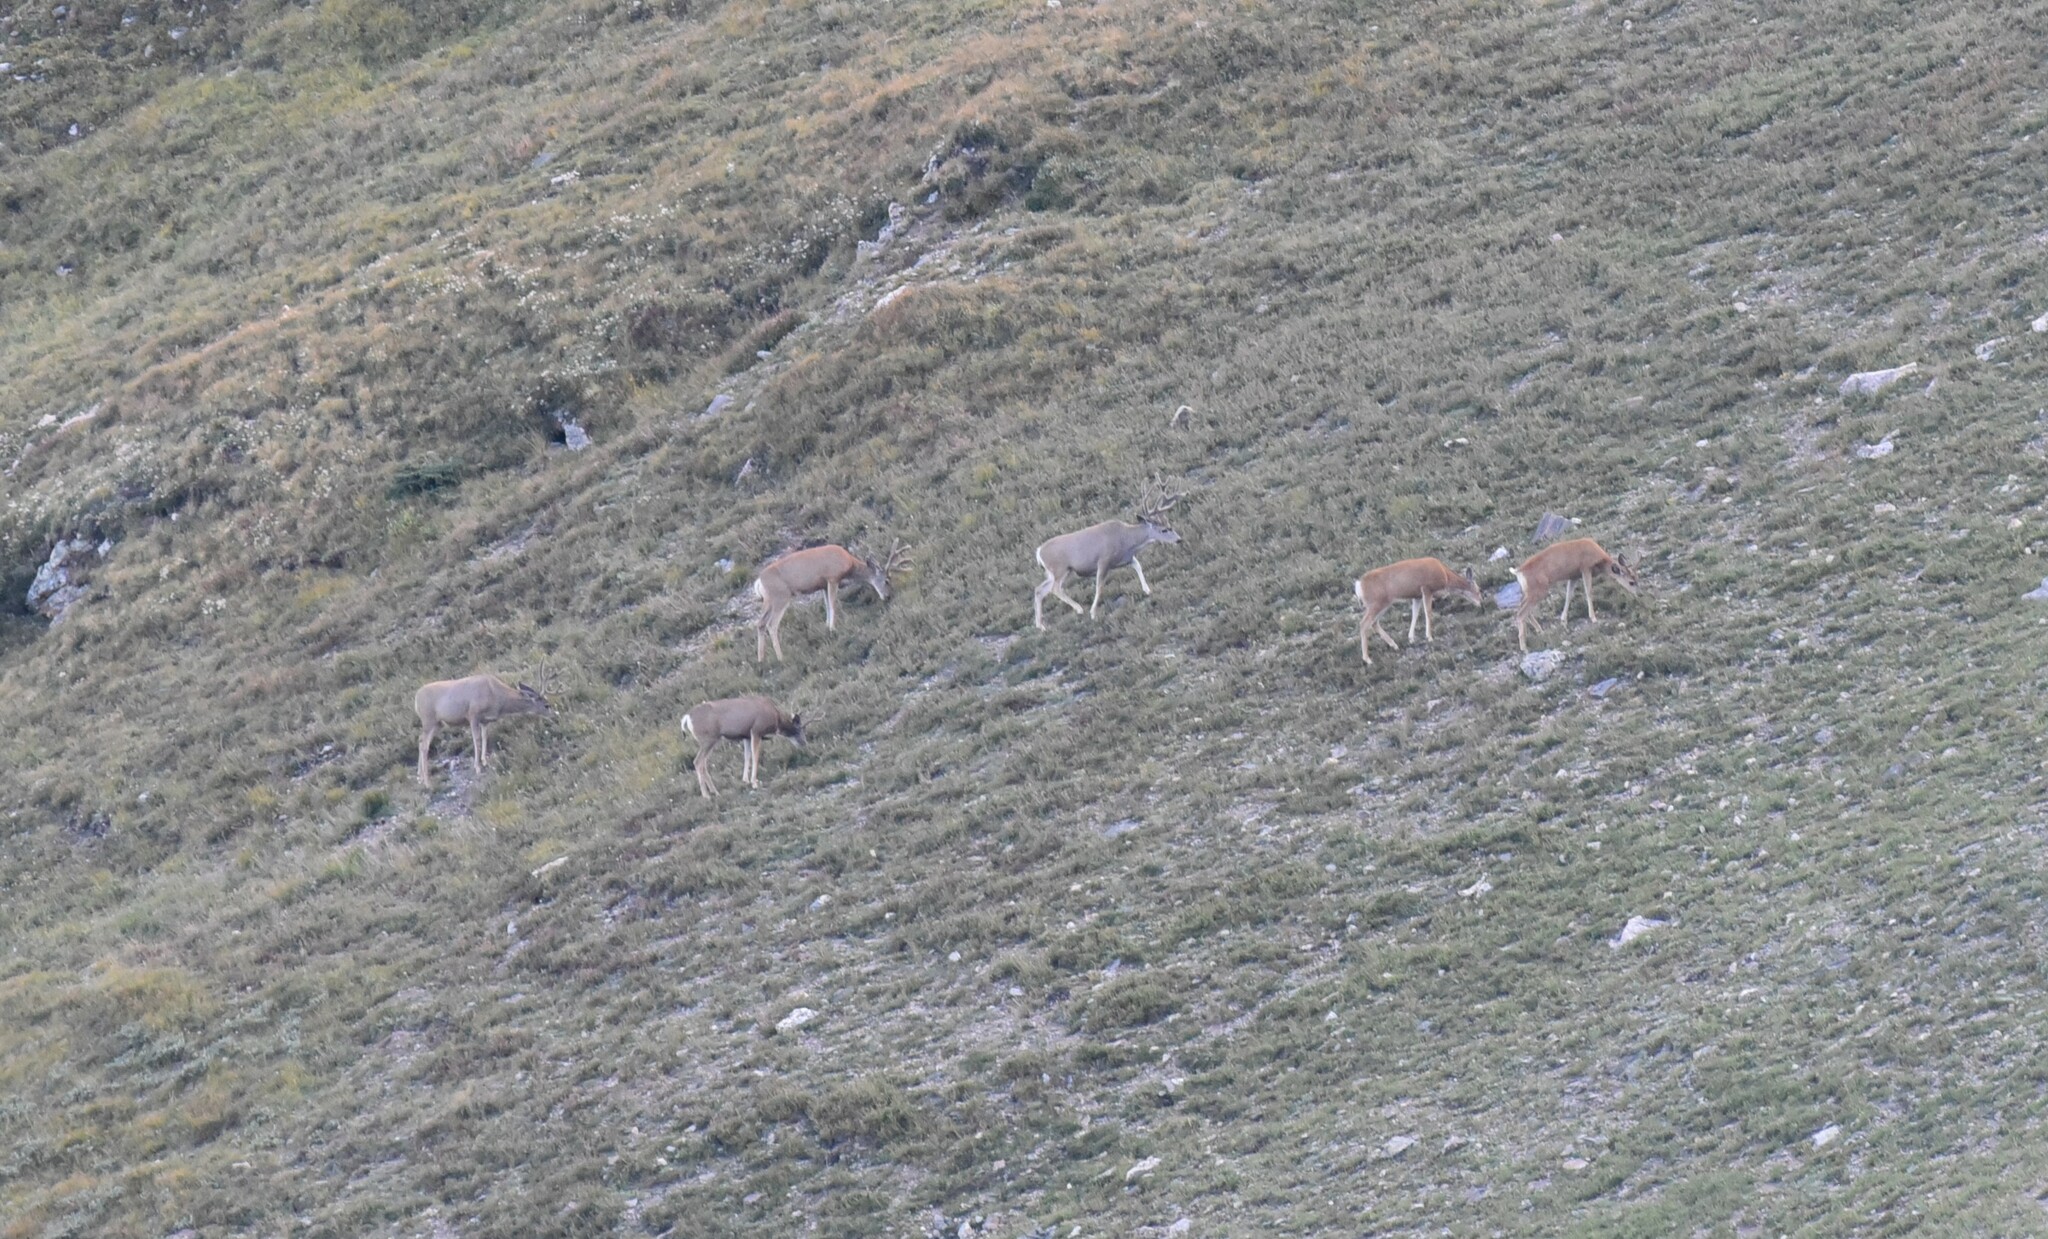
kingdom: Animalia
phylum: Chordata
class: Mammalia
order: Artiodactyla
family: Cervidae
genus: Odocoileus
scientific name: Odocoileus hemionus
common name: Mule deer
